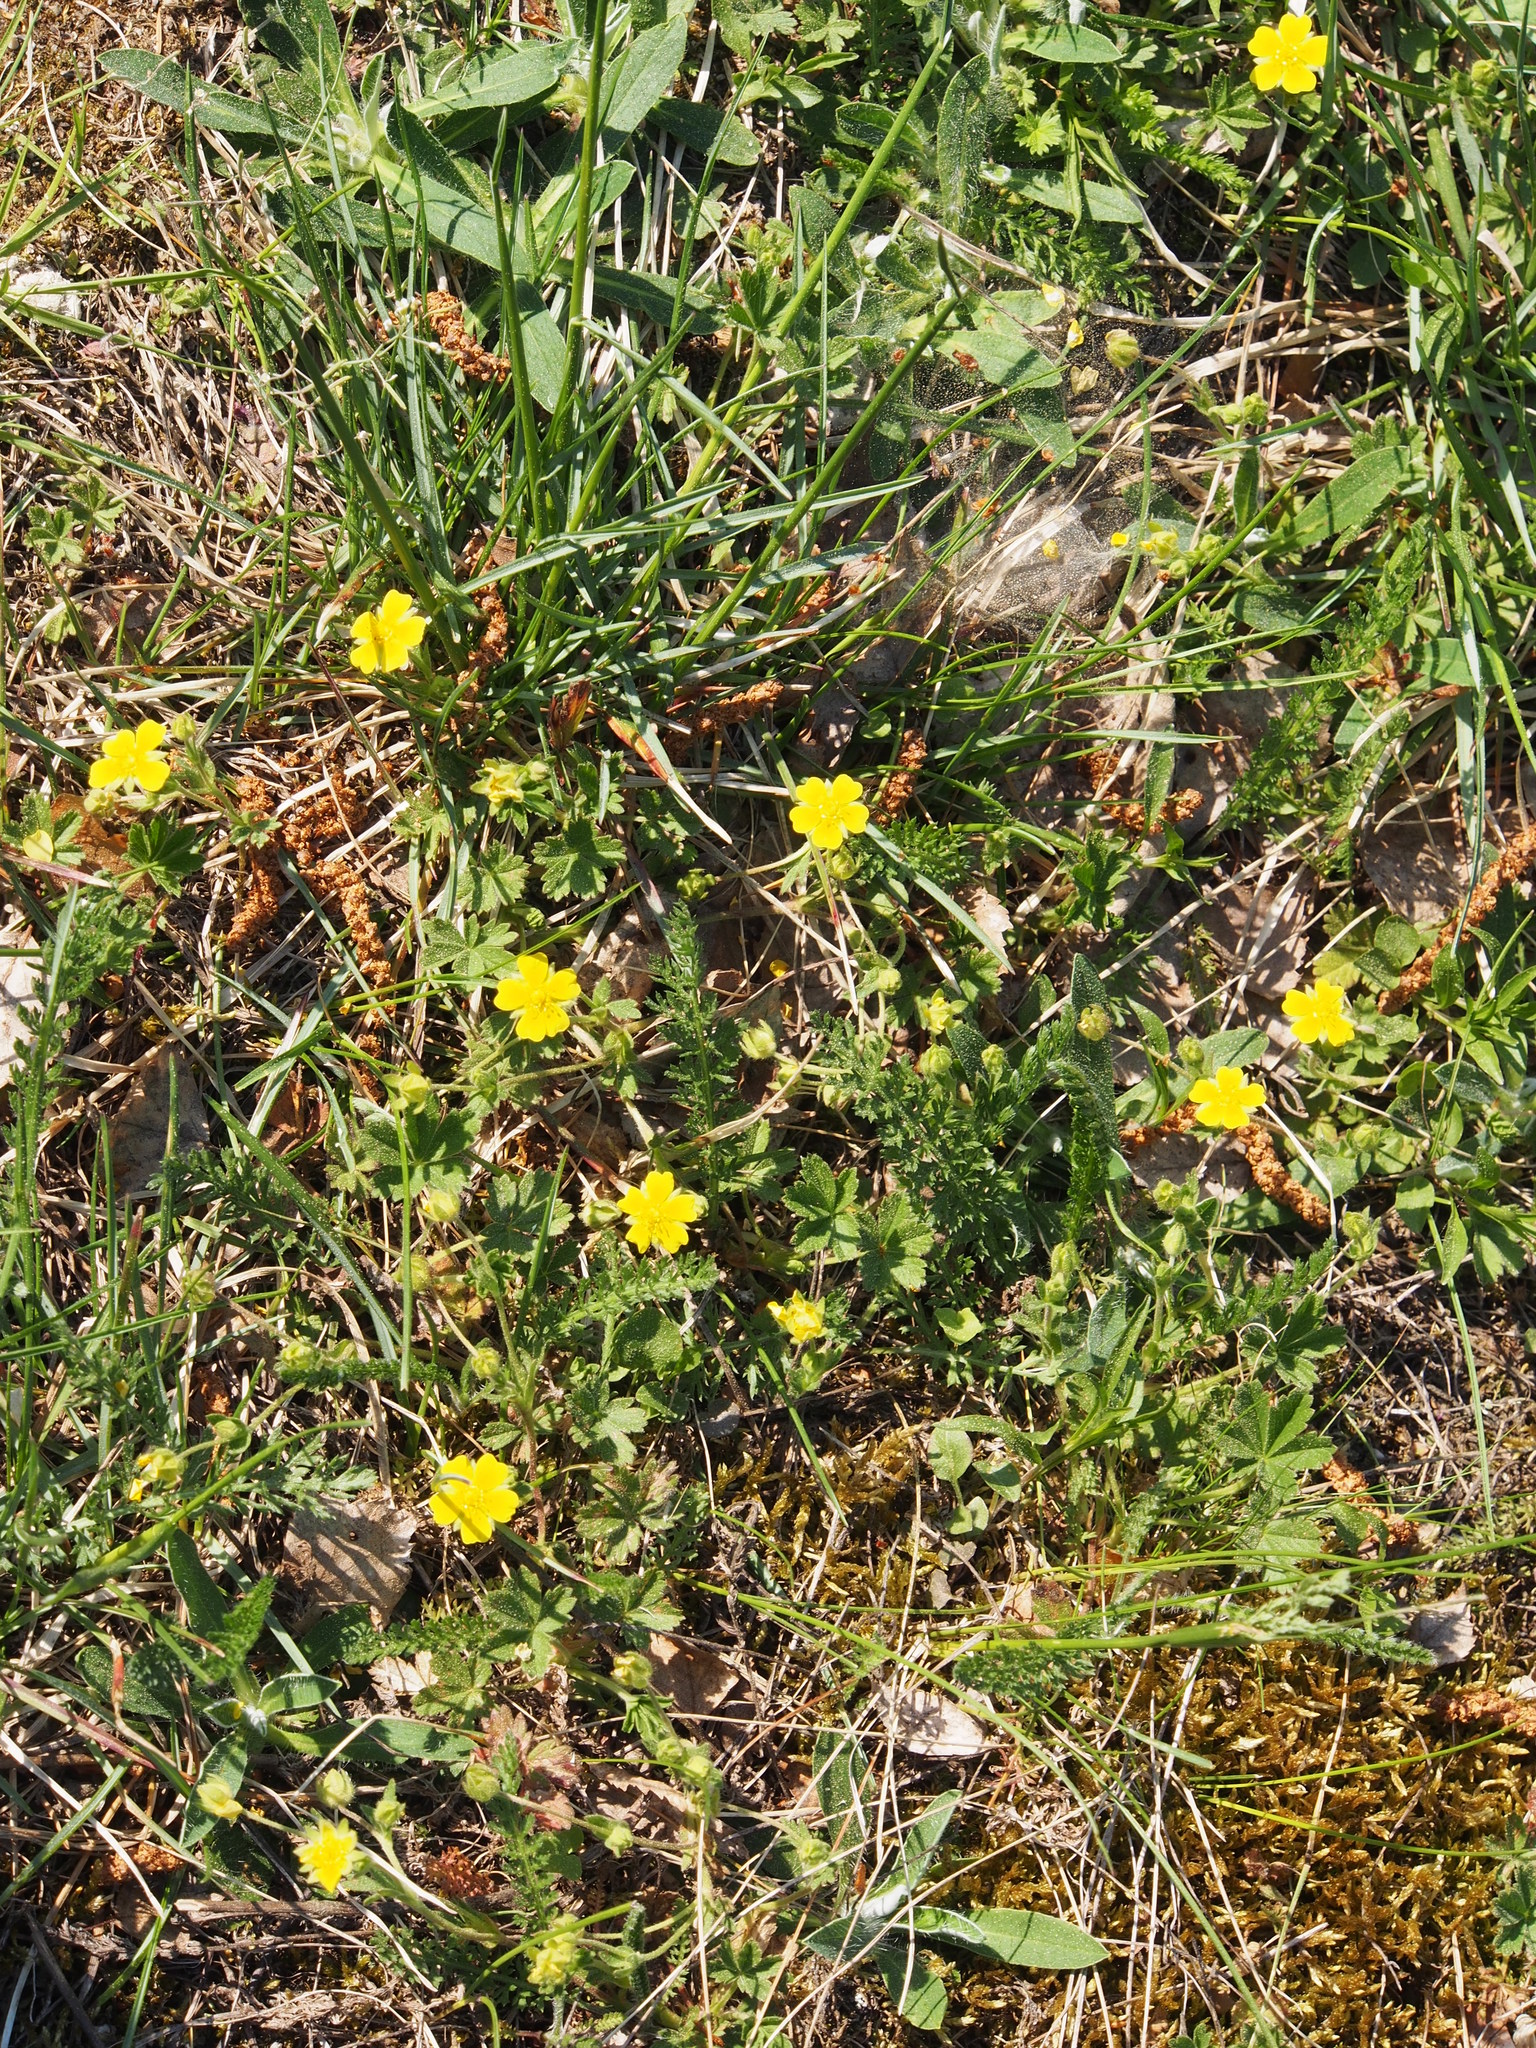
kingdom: Plantae
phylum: Tracheophyta
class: Magnoliopsida
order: Rosales
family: Rosaceae
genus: Potentilla
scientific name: Potentilla verna
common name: Spring cinquefoil
